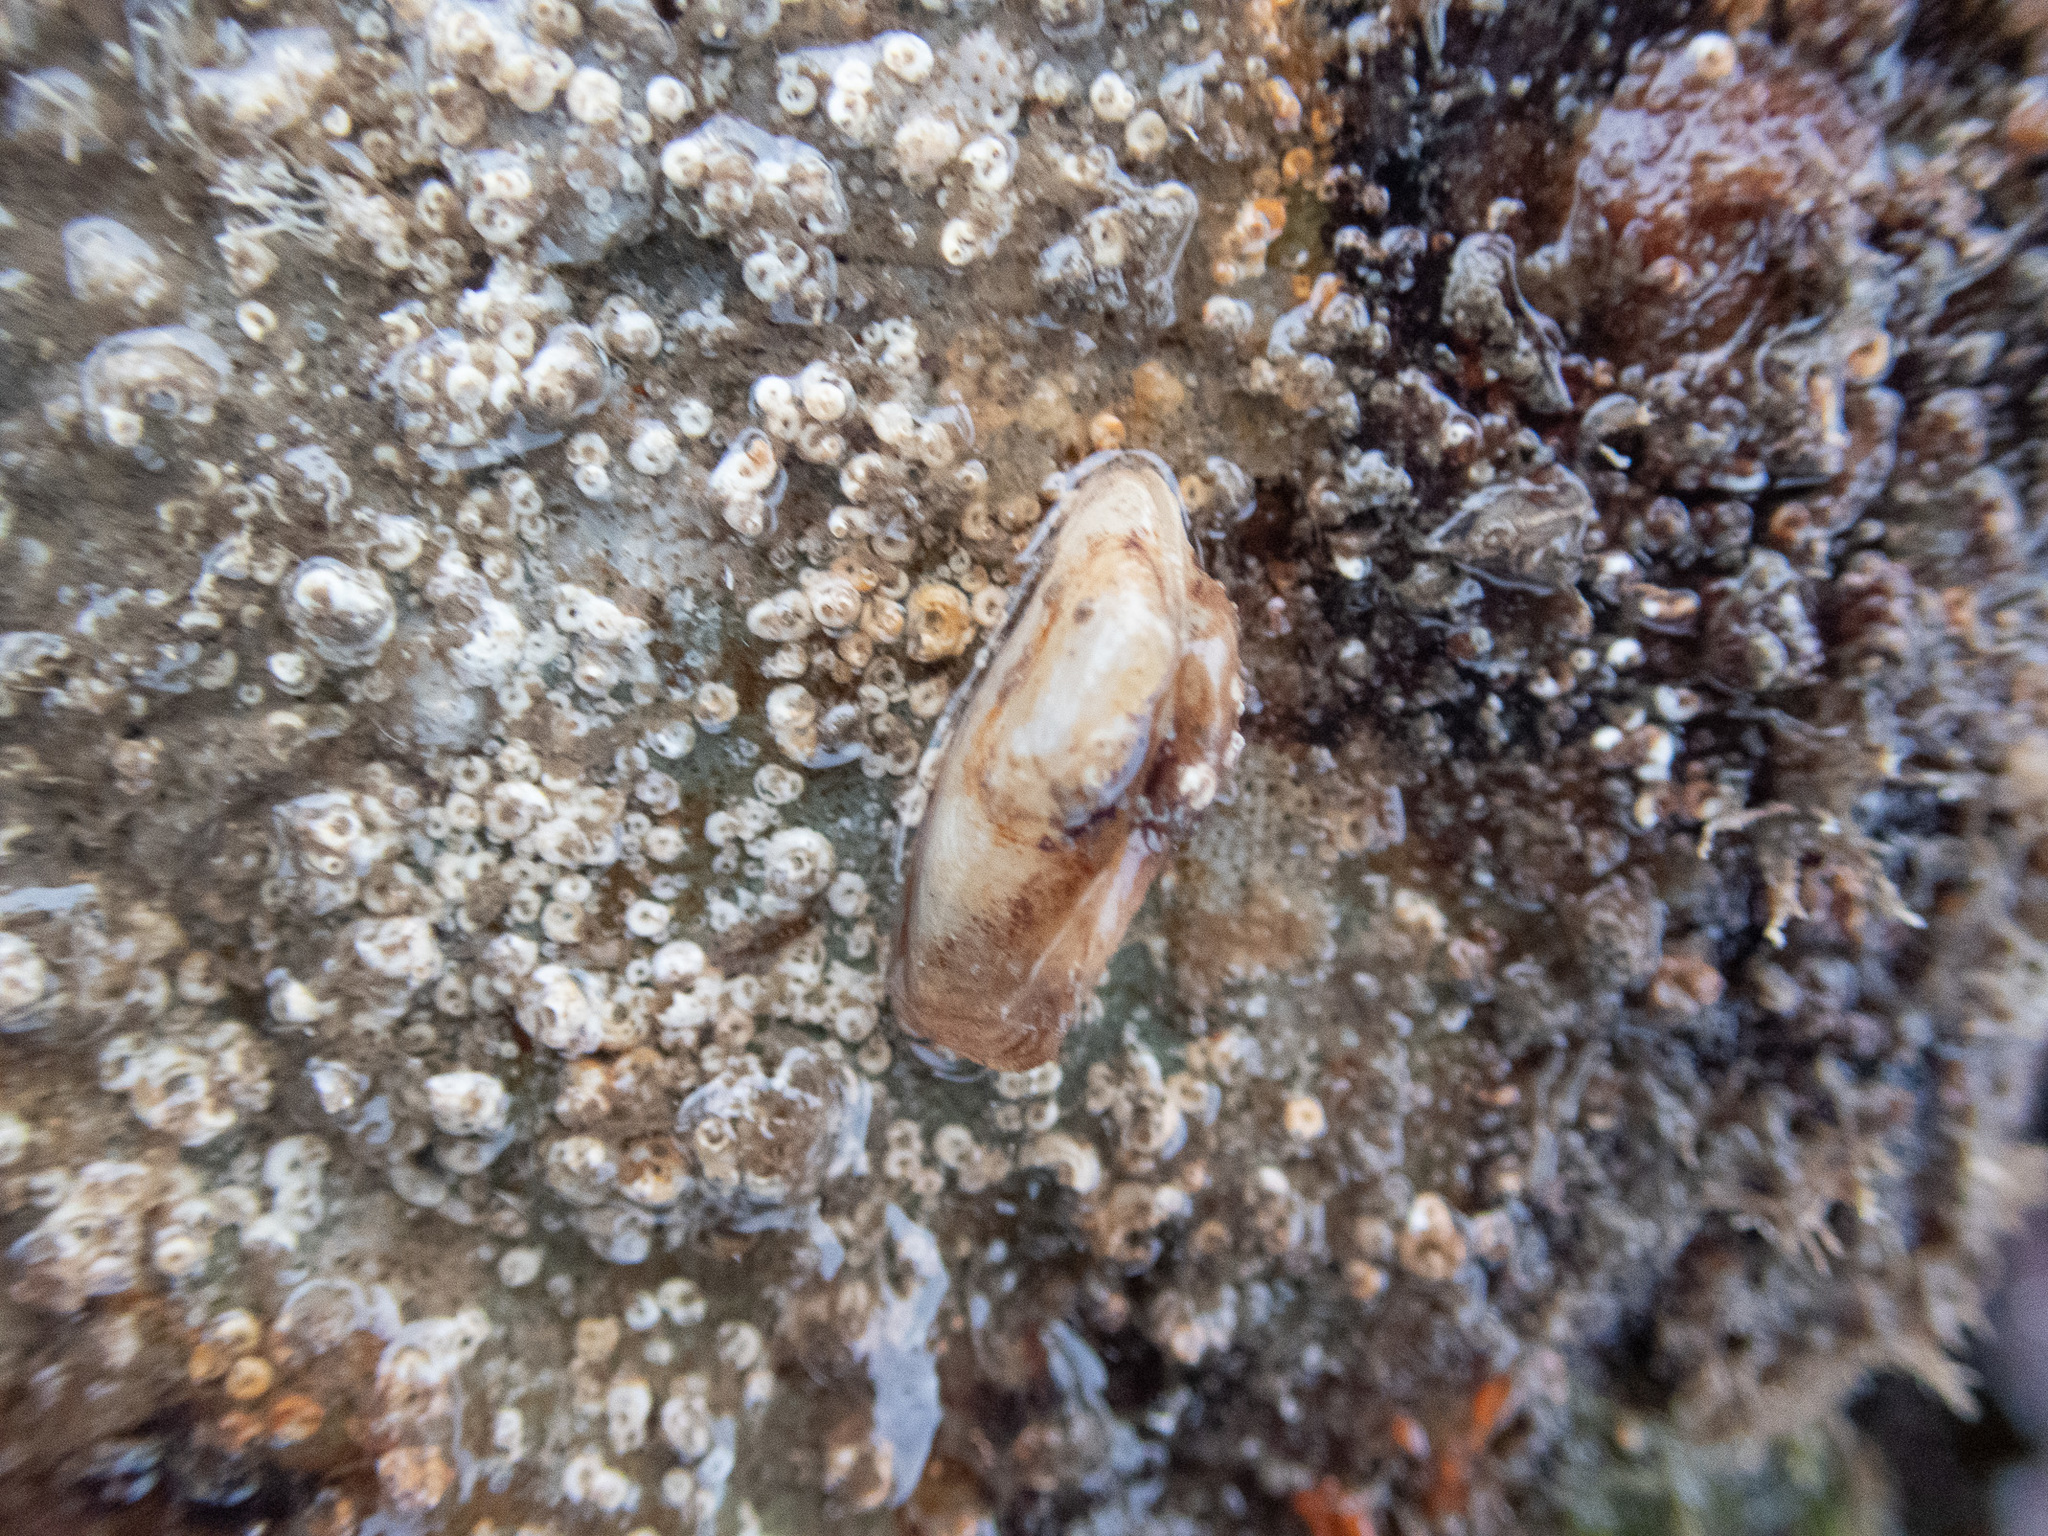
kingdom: Animalia
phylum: Mollusca
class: Bivalvia
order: Adapedonta
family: Hiatellidae
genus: Hiatella
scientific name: Hiatella arctica
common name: Arctic hiatella
